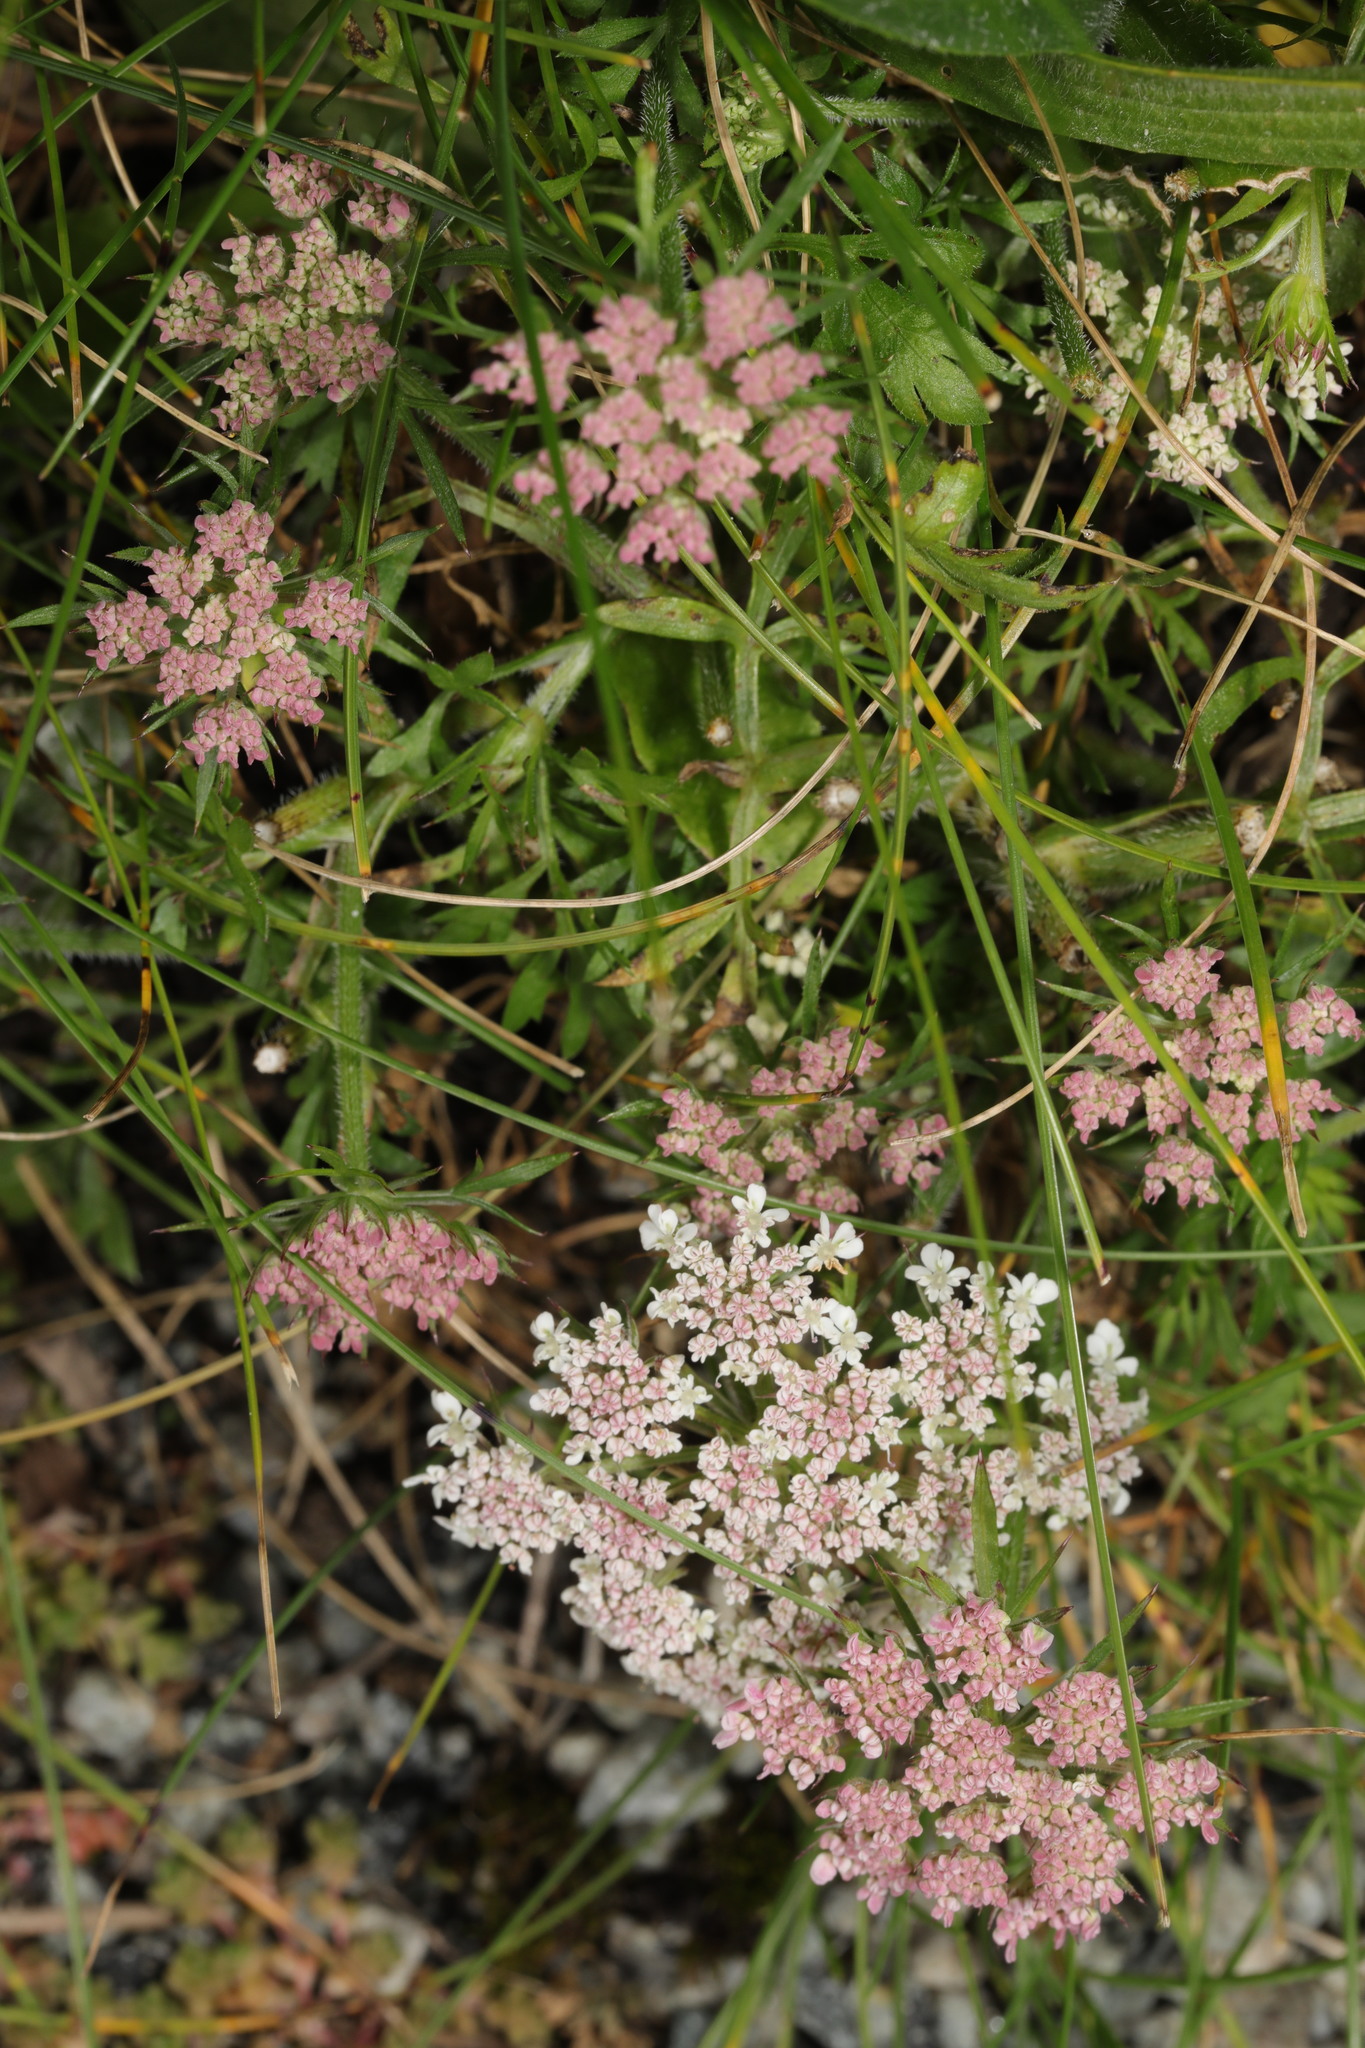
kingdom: Plantae
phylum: Tracheophyta
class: Magnoliopsida
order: Apiales
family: Apiaceae
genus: Daucus
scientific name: Daucus carota
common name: Wild carrot
